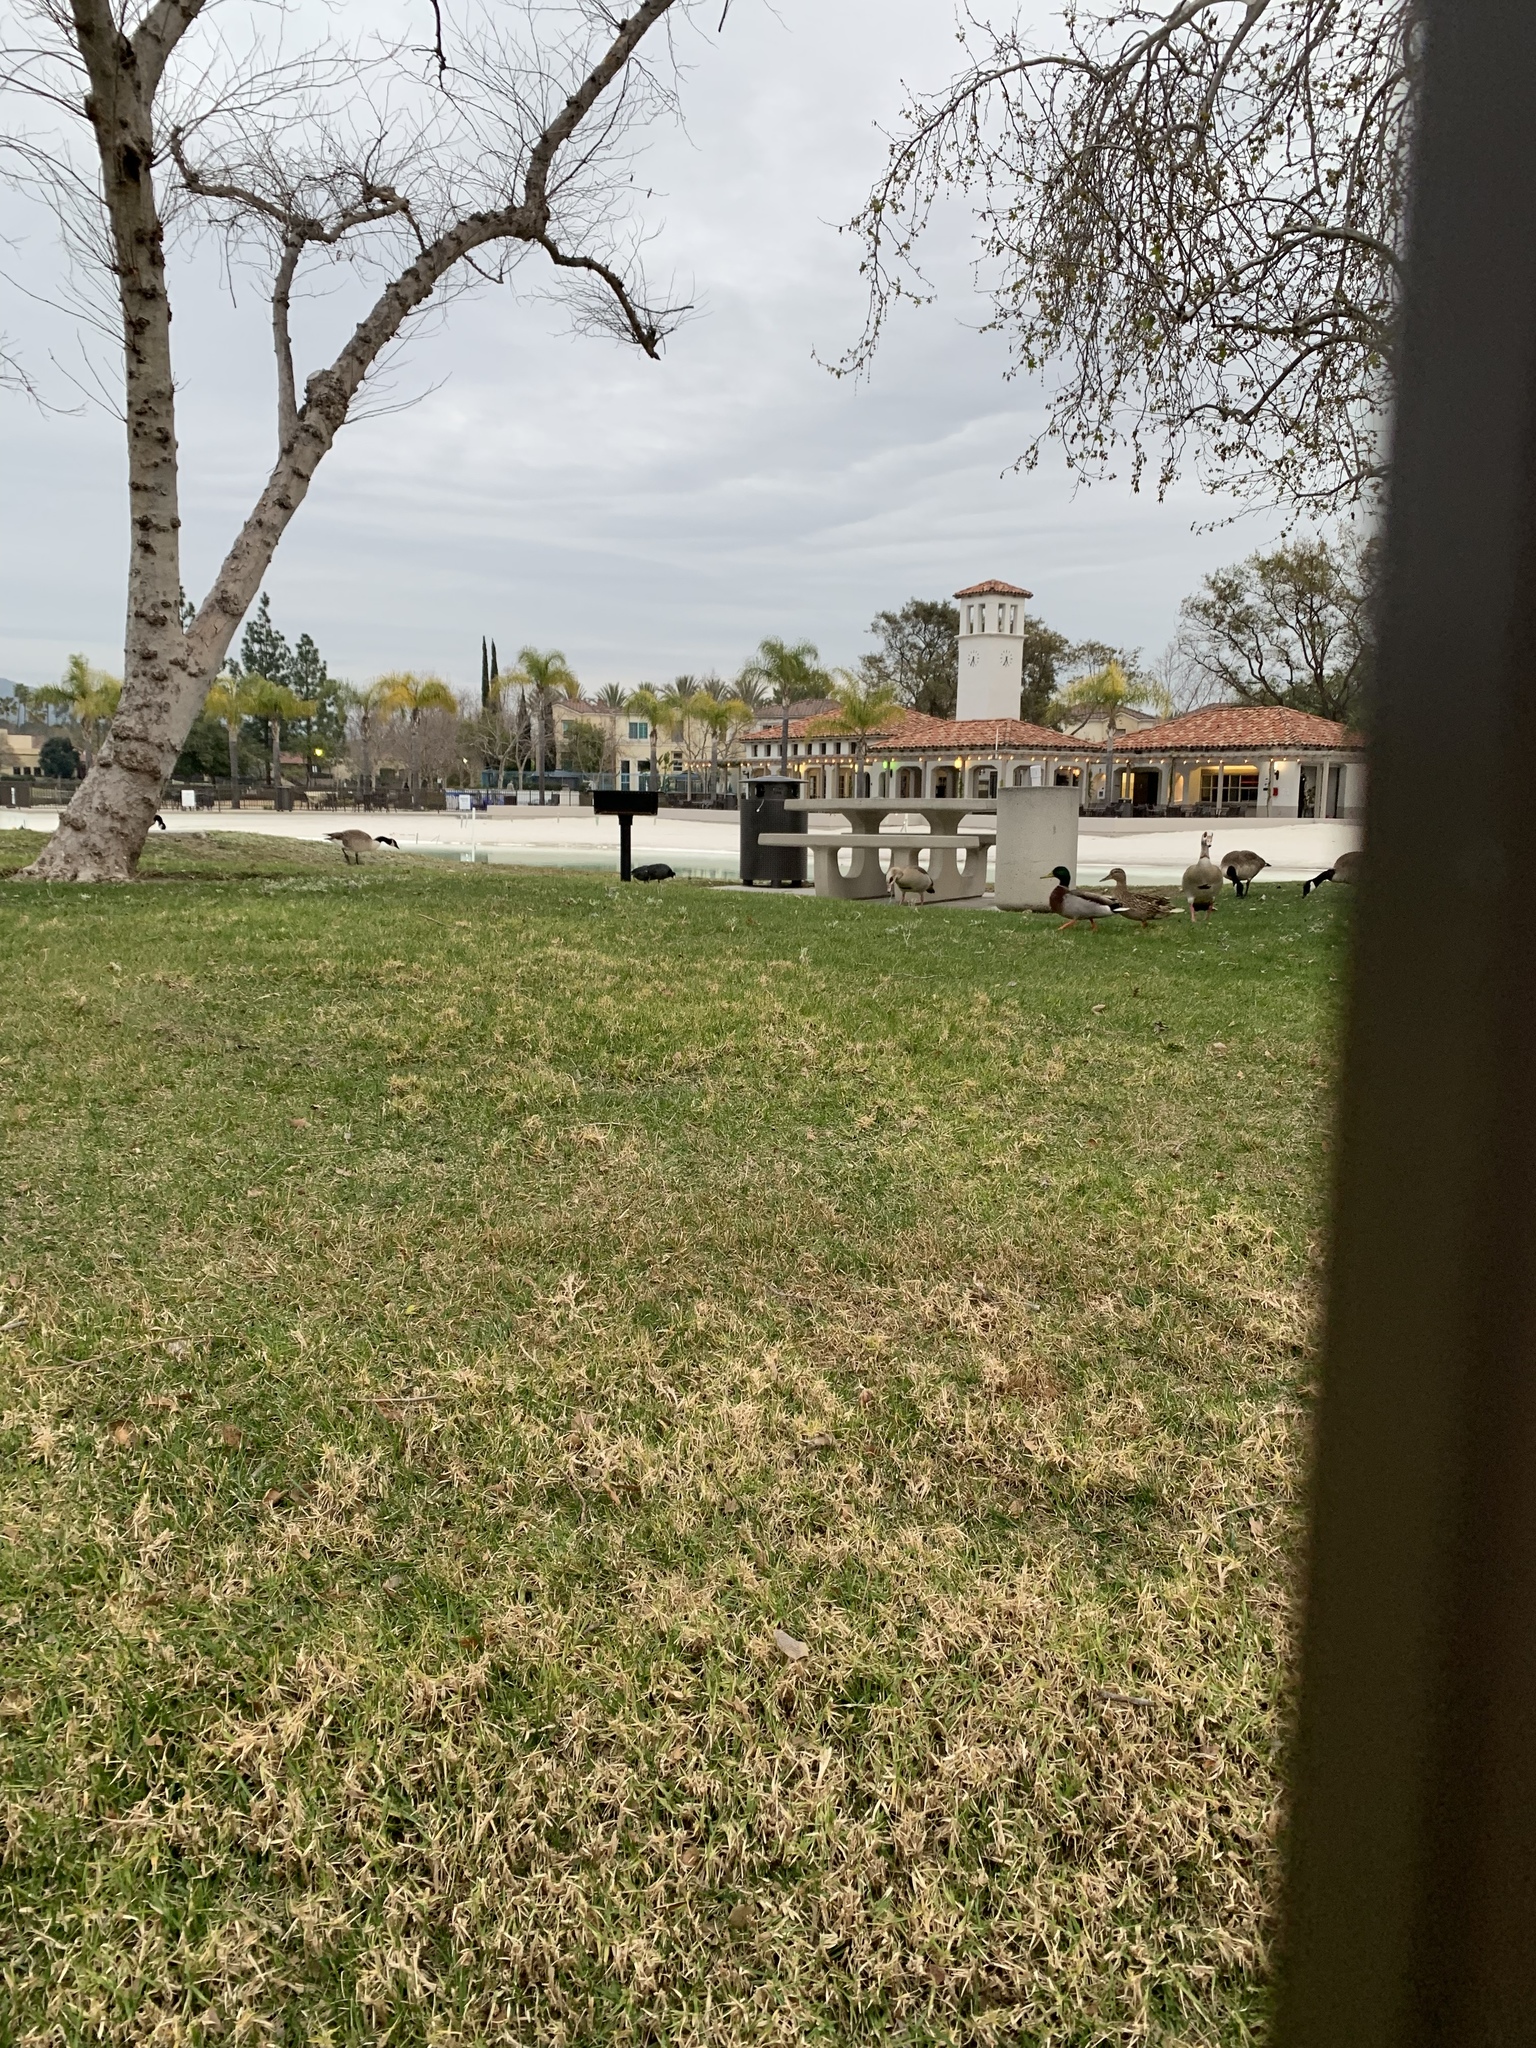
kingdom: Animalia
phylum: Chordata
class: Aves
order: Anseriformes
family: Anatidae
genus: Alopochen
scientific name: Alopochen aegyptiaca
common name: Egyptian goose
